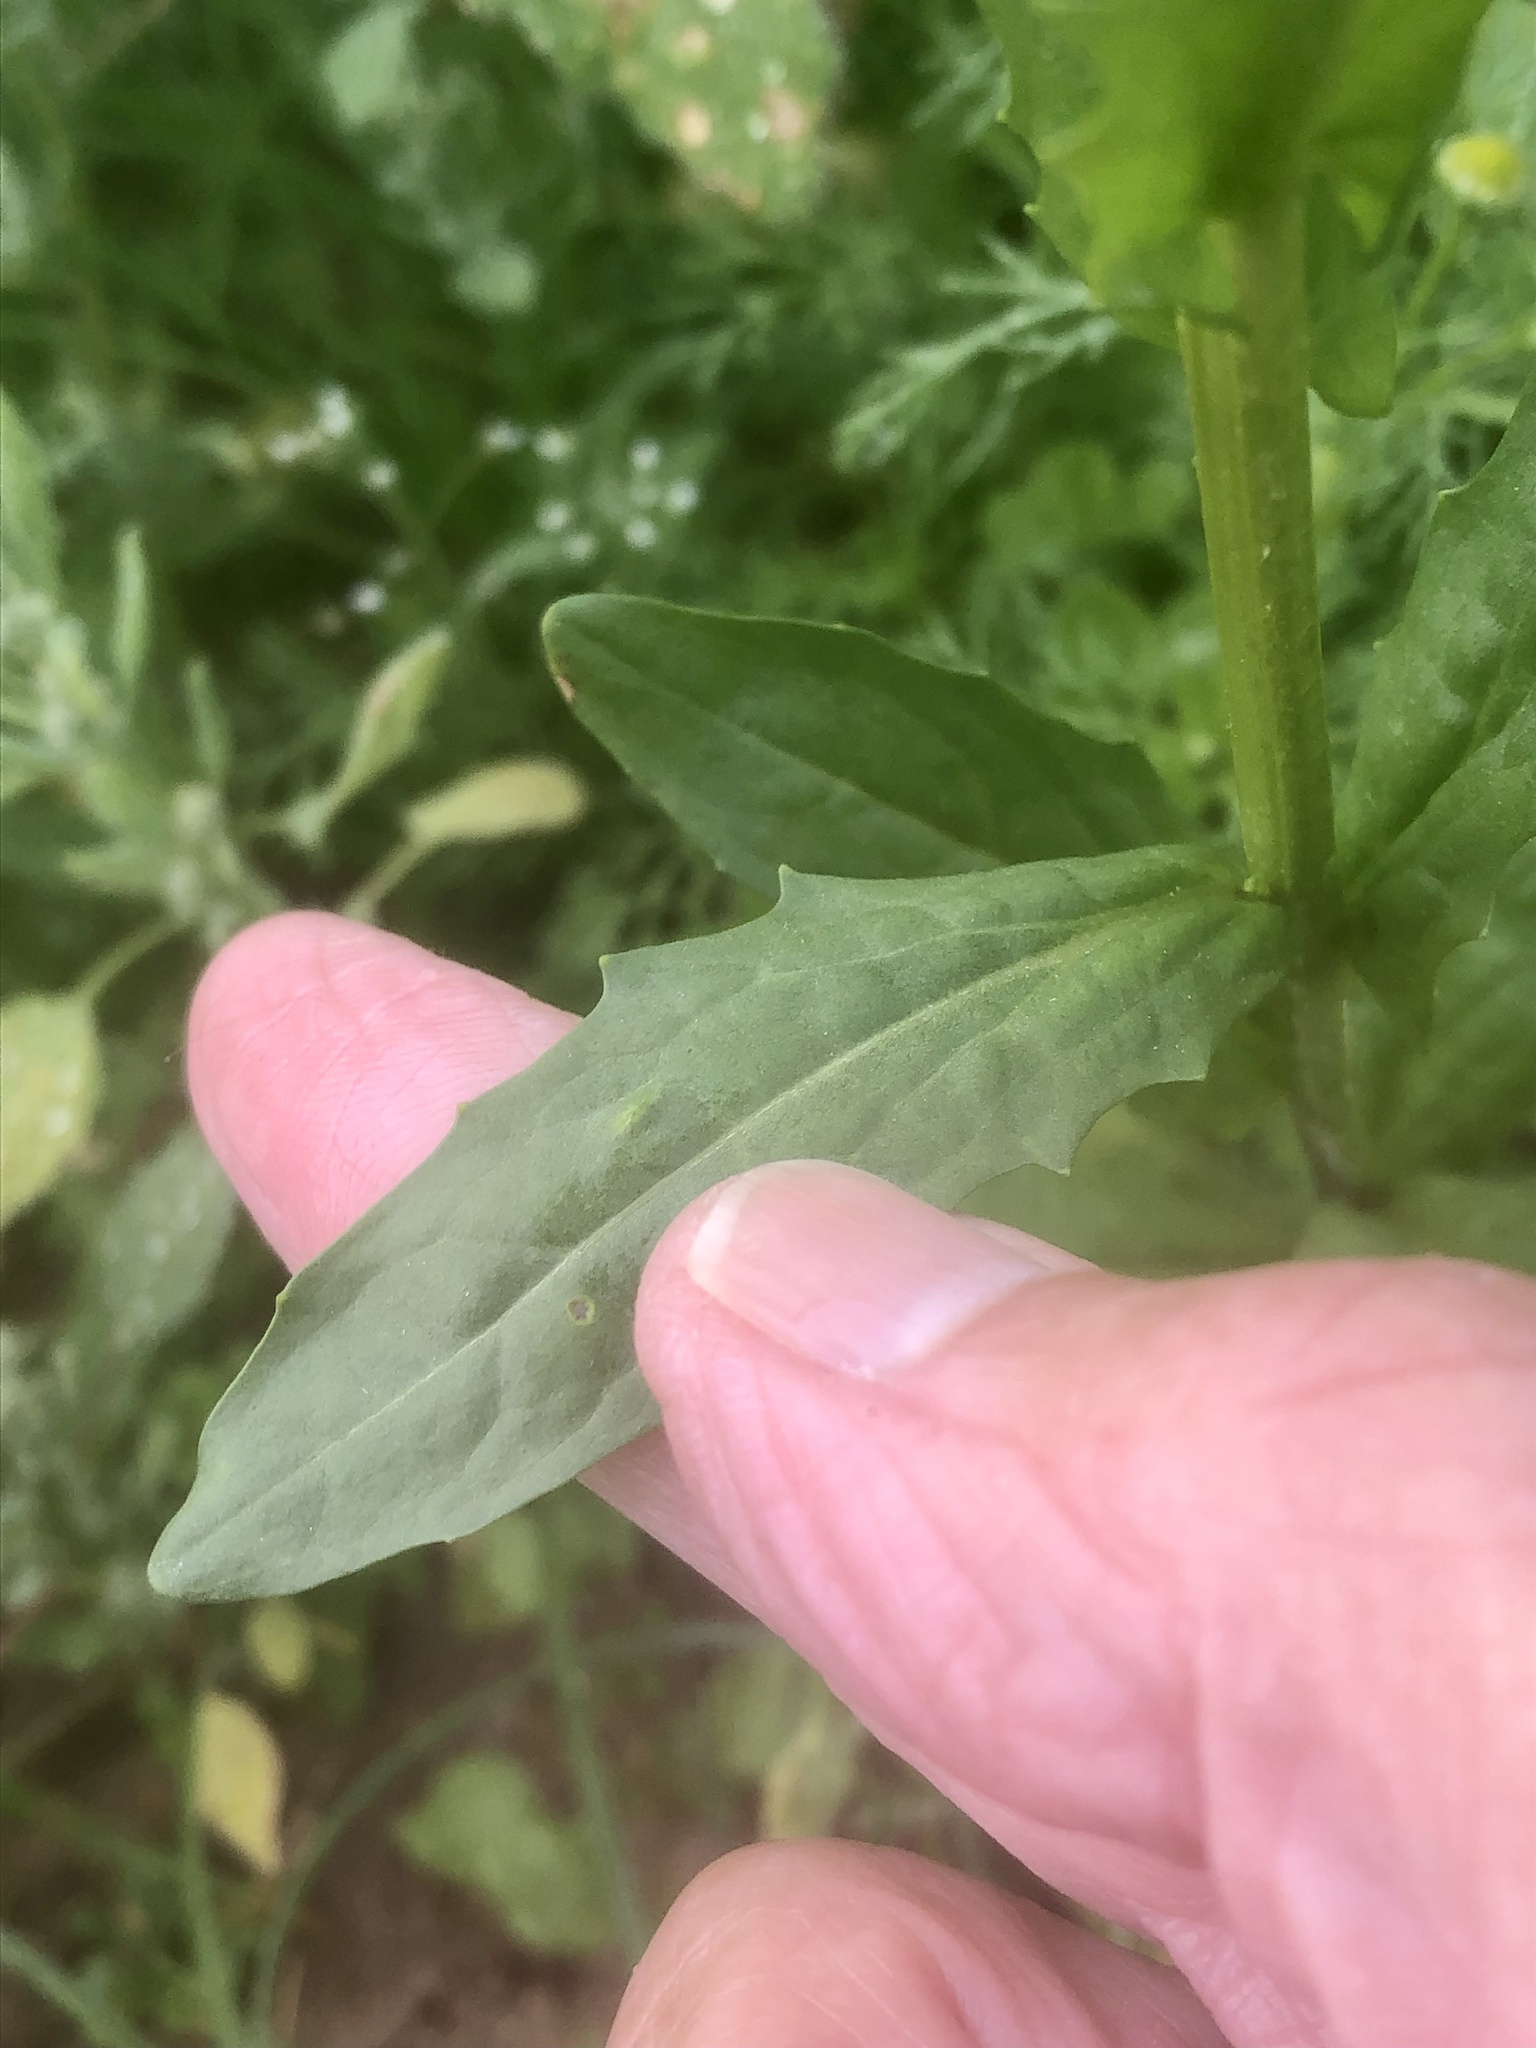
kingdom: Plantae
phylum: Tracheophyta
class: Magnoliopsida
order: Brassicales
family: Brassicaceae
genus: Thlaspi
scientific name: Thlaspi arvense
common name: Field pennycress
